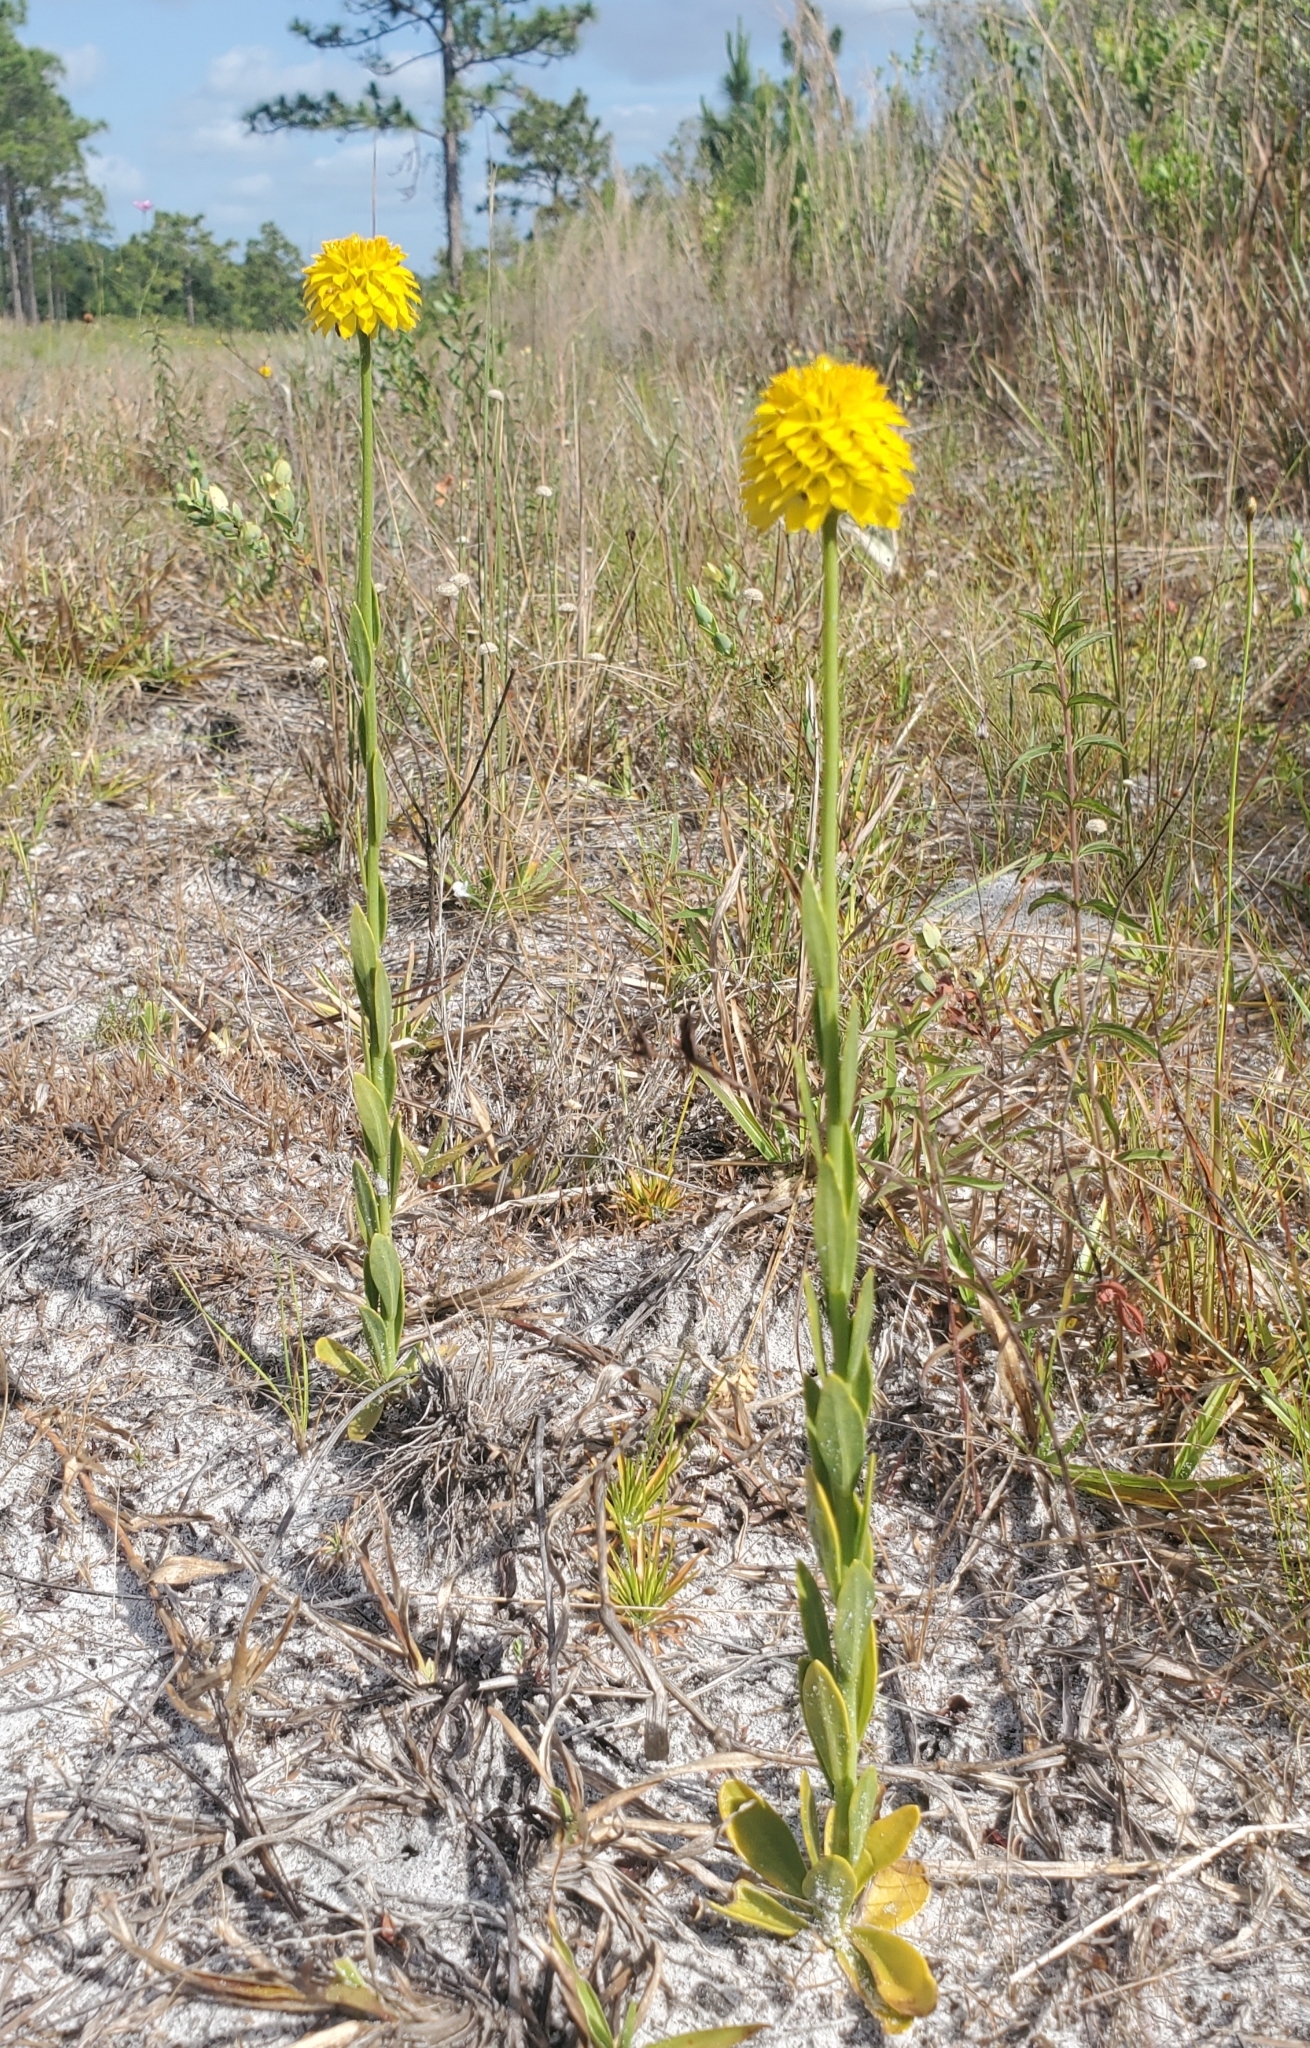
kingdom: Plantae
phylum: Tracheophyta
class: Magnoliopsida
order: Fabales
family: Polygalaceae
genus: Polygala
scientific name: Polygala rugelii
